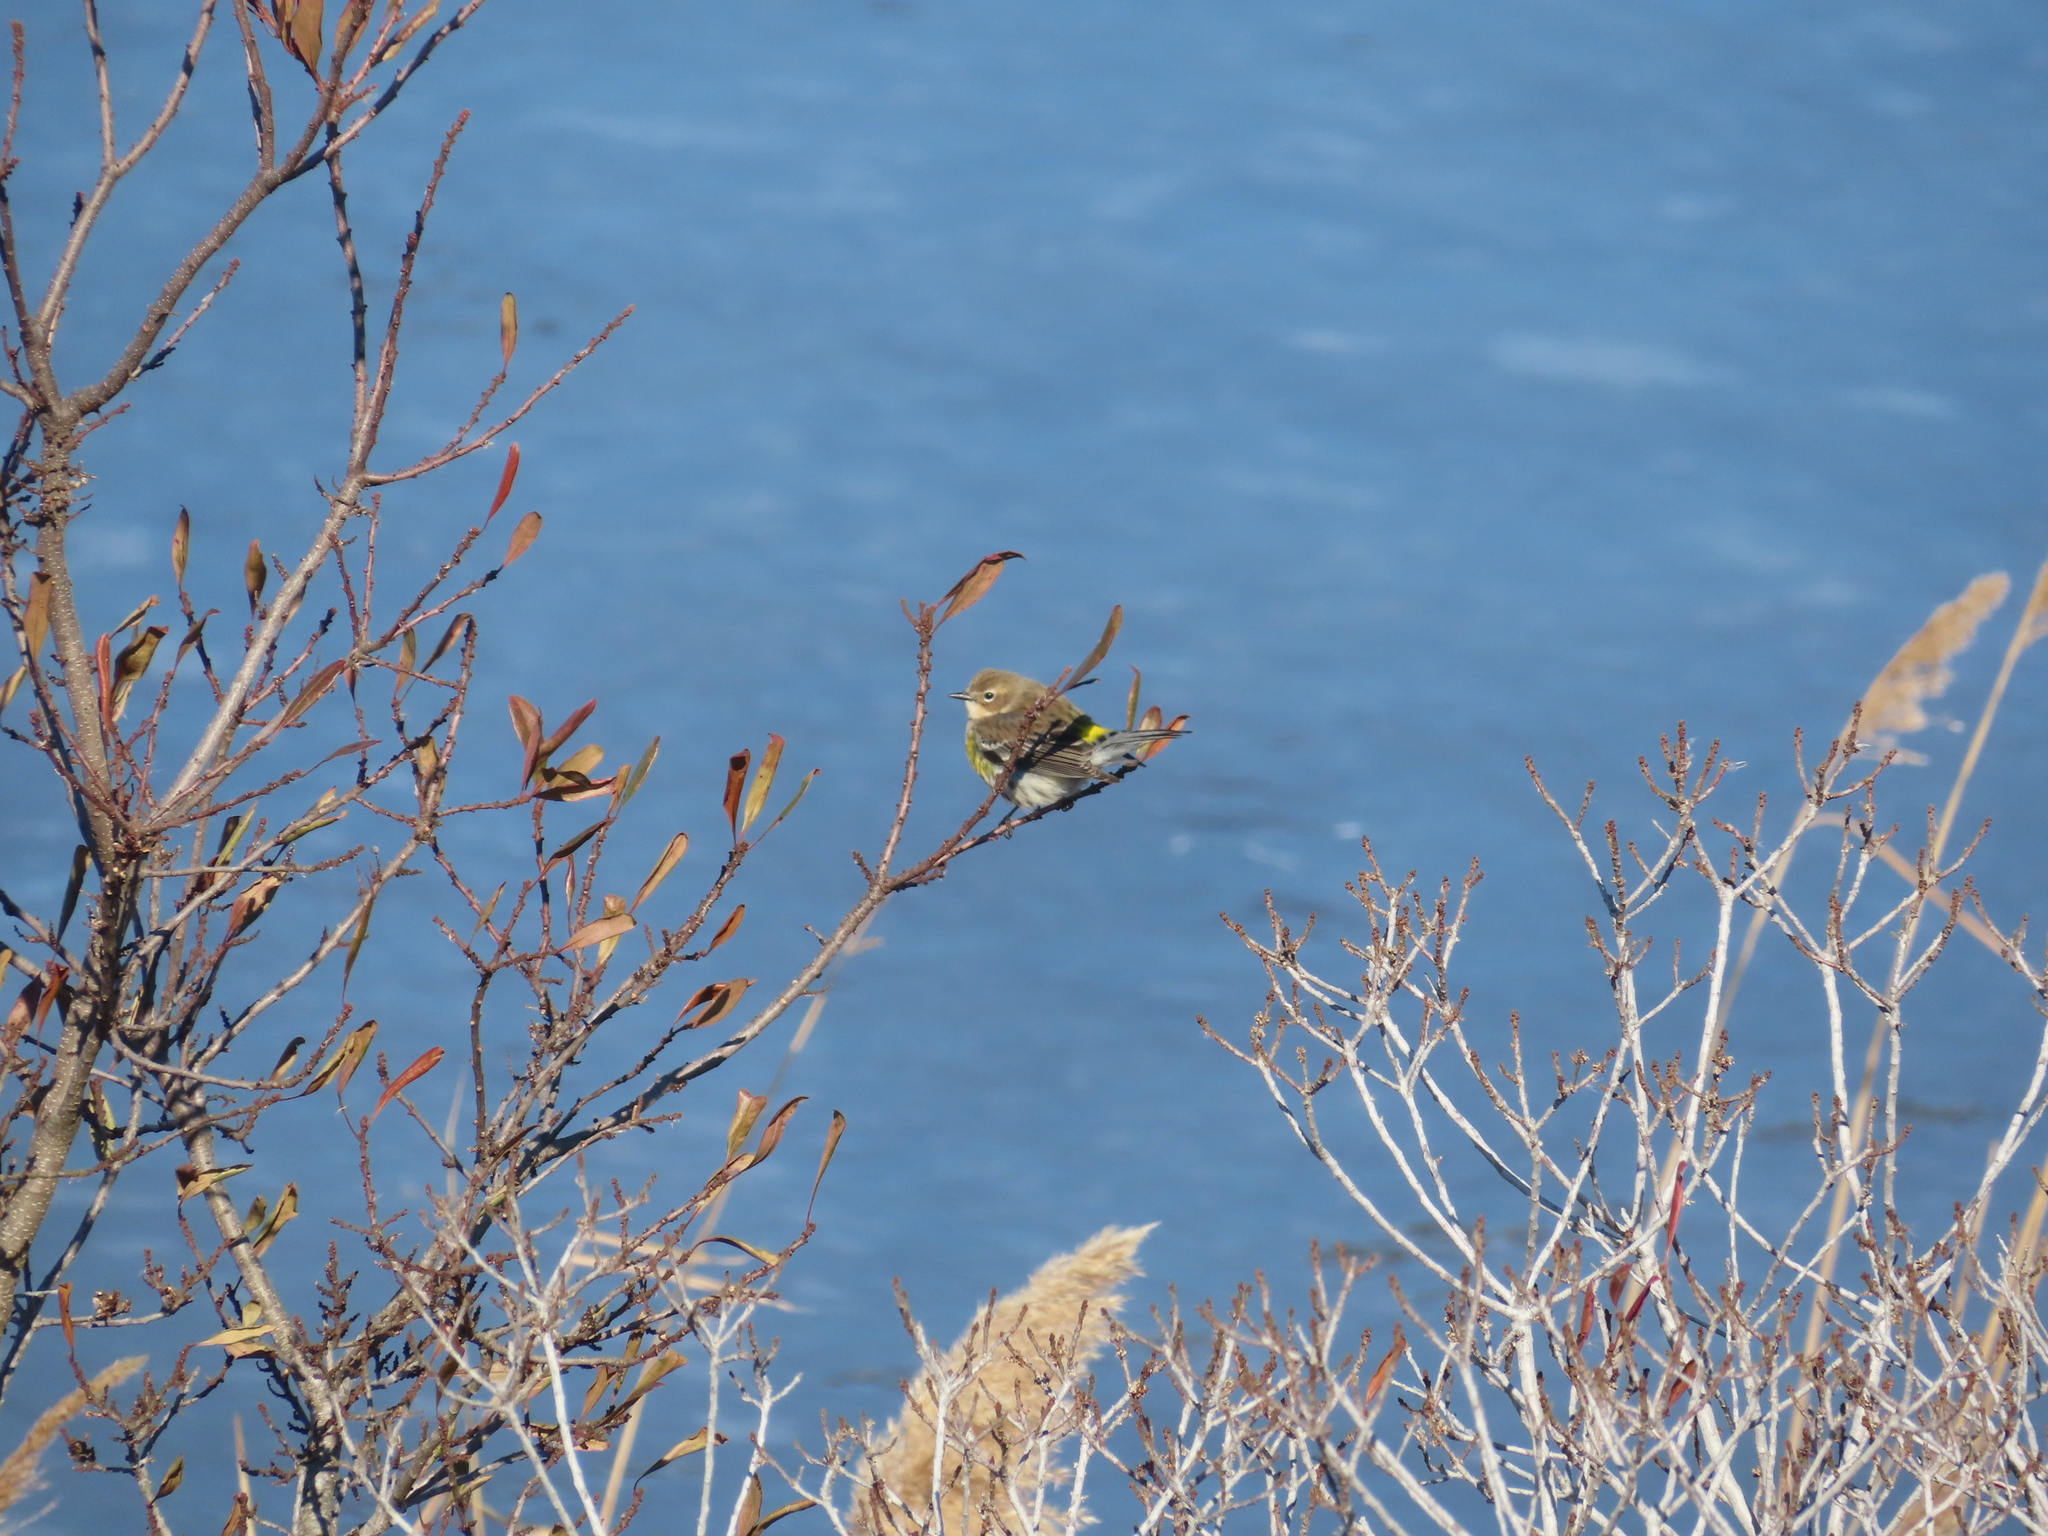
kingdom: Animalia
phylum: Chordata
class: Aves
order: Passeriformes
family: Parulidae
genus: Setophaga
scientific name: Setophaga coronata
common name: Myrtle warbler
